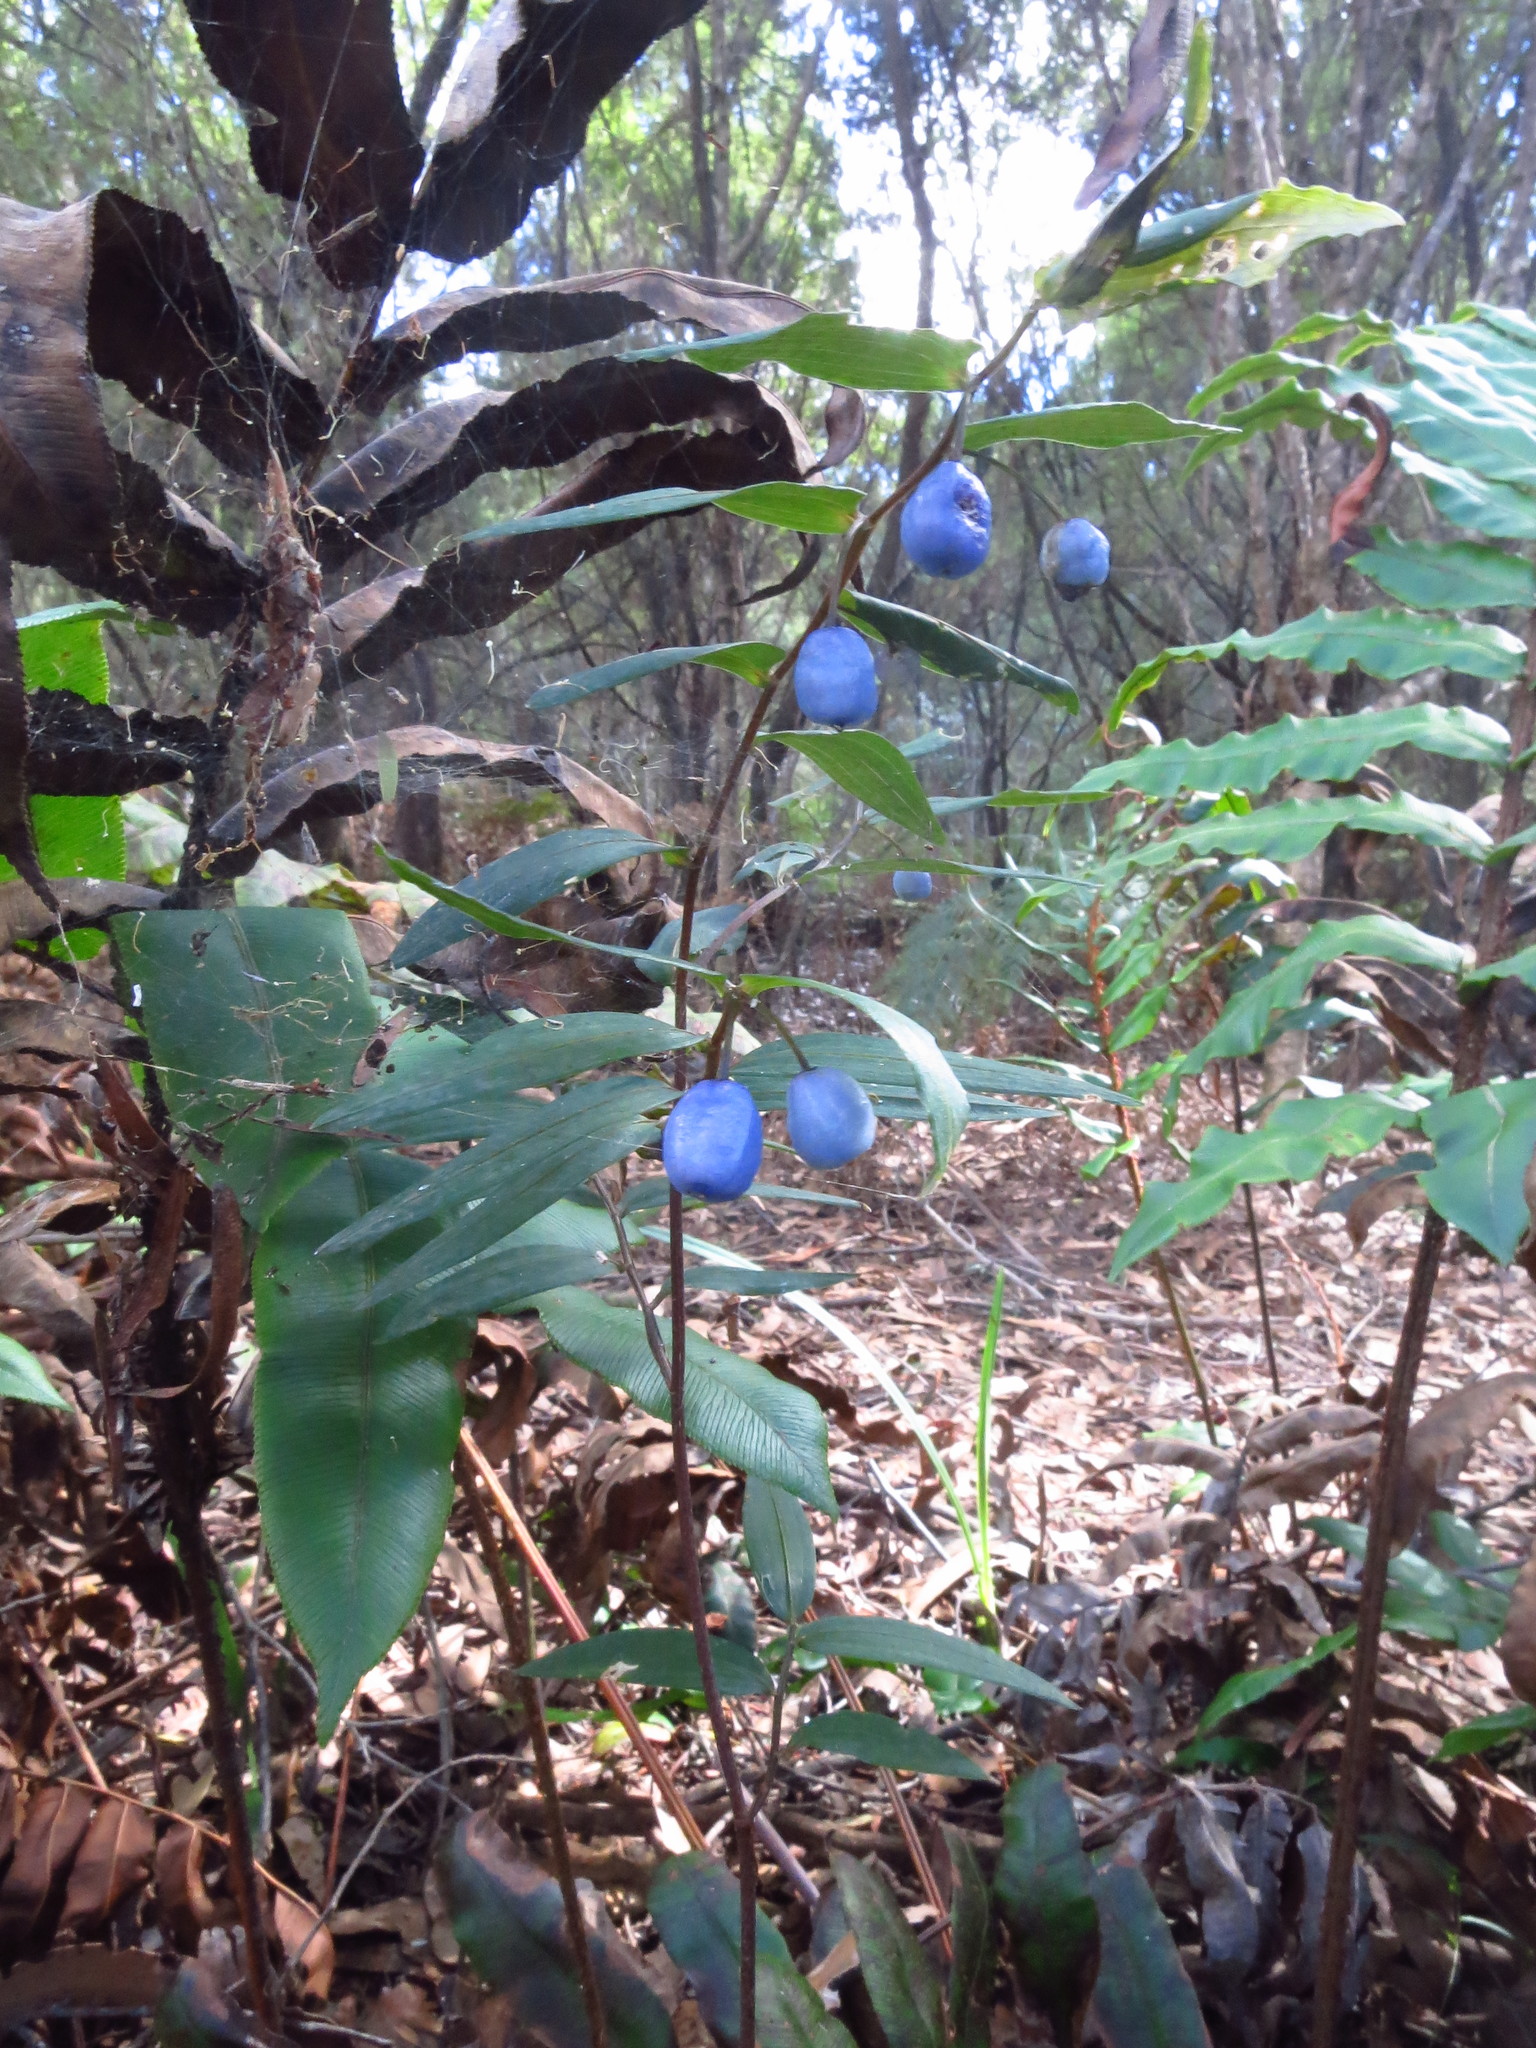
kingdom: Plantae
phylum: Tracheophyta
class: Liliopsida
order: Liliales
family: Alstroemeriaceae
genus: Drymophila
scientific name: Drymophila cyanocarpa
